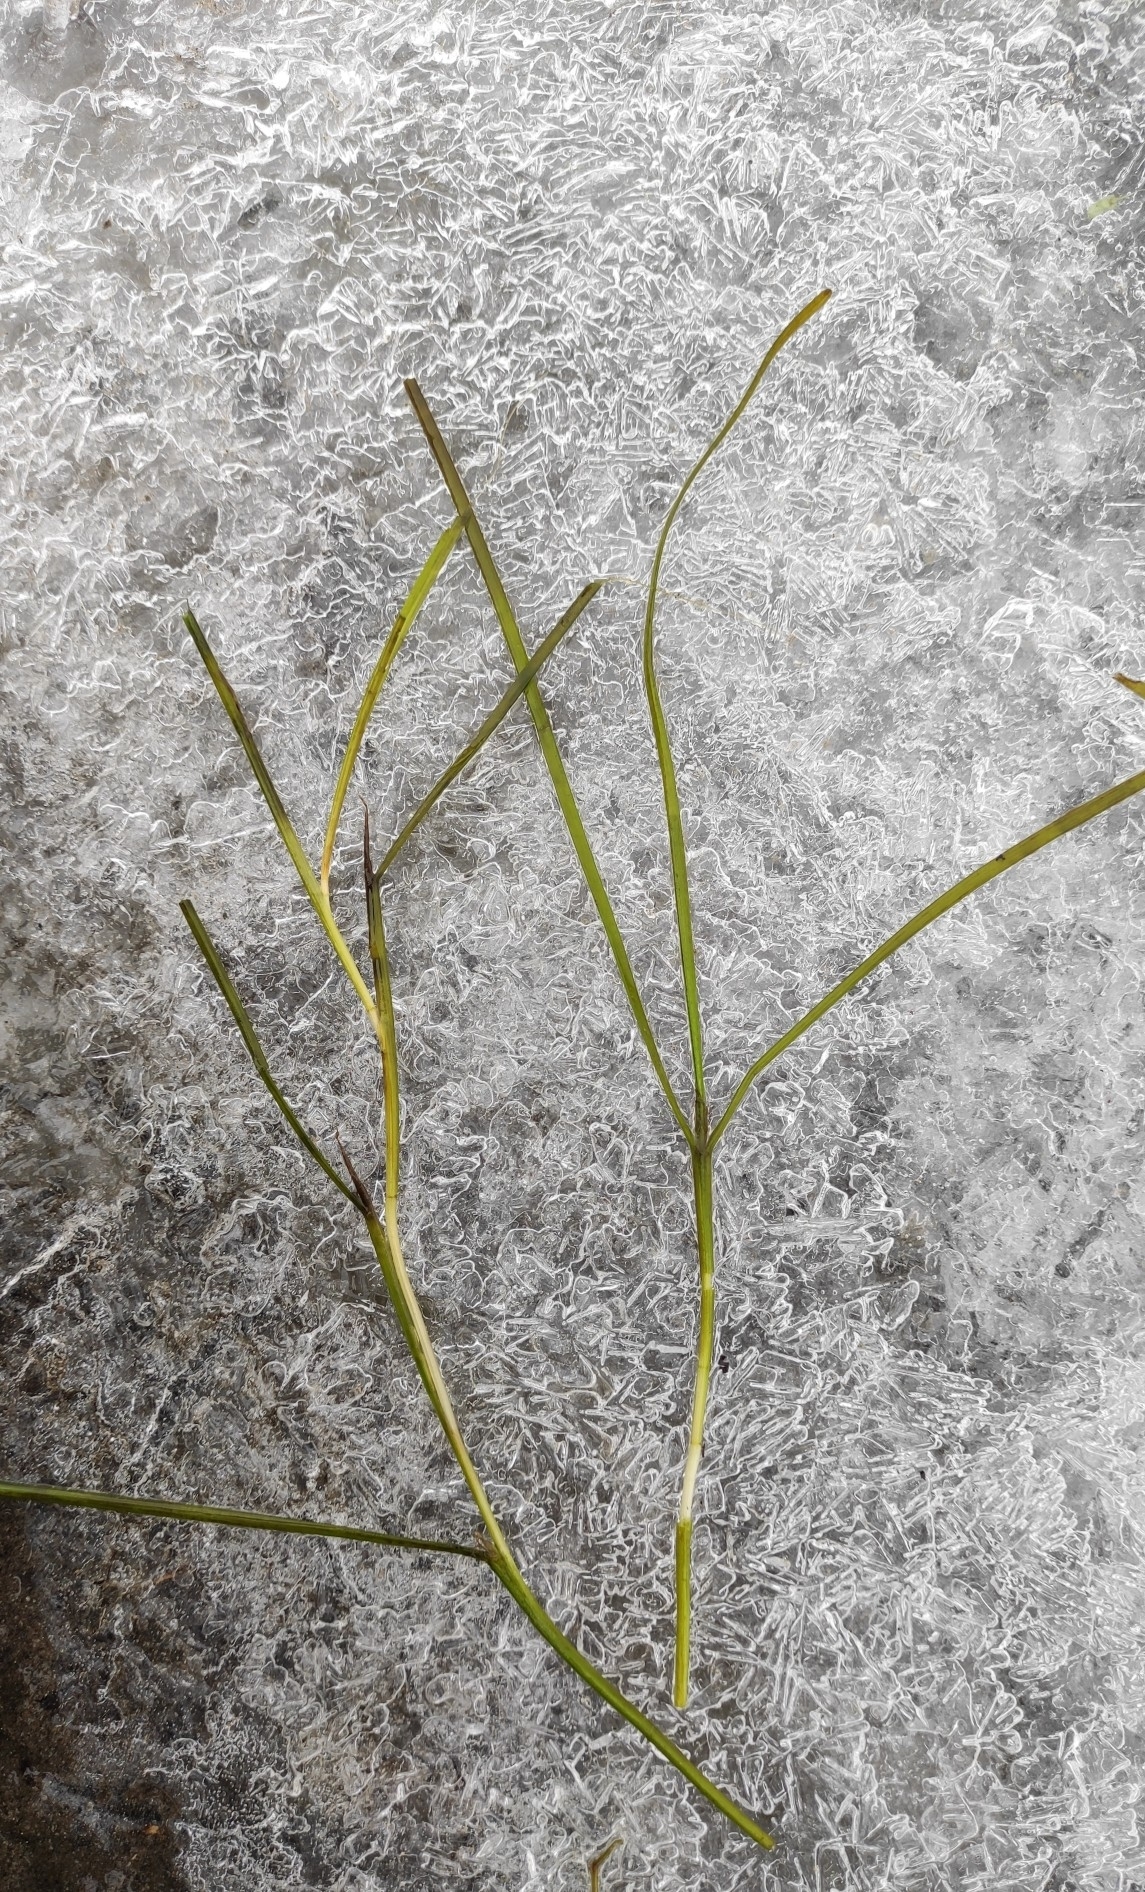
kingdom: Plantae
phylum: Tracheophyta
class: Liliopsida
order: Alismatales
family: Potamogetonaceae
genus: Stuckenia
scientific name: Stuckenia pectinata
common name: Sago pondweed
